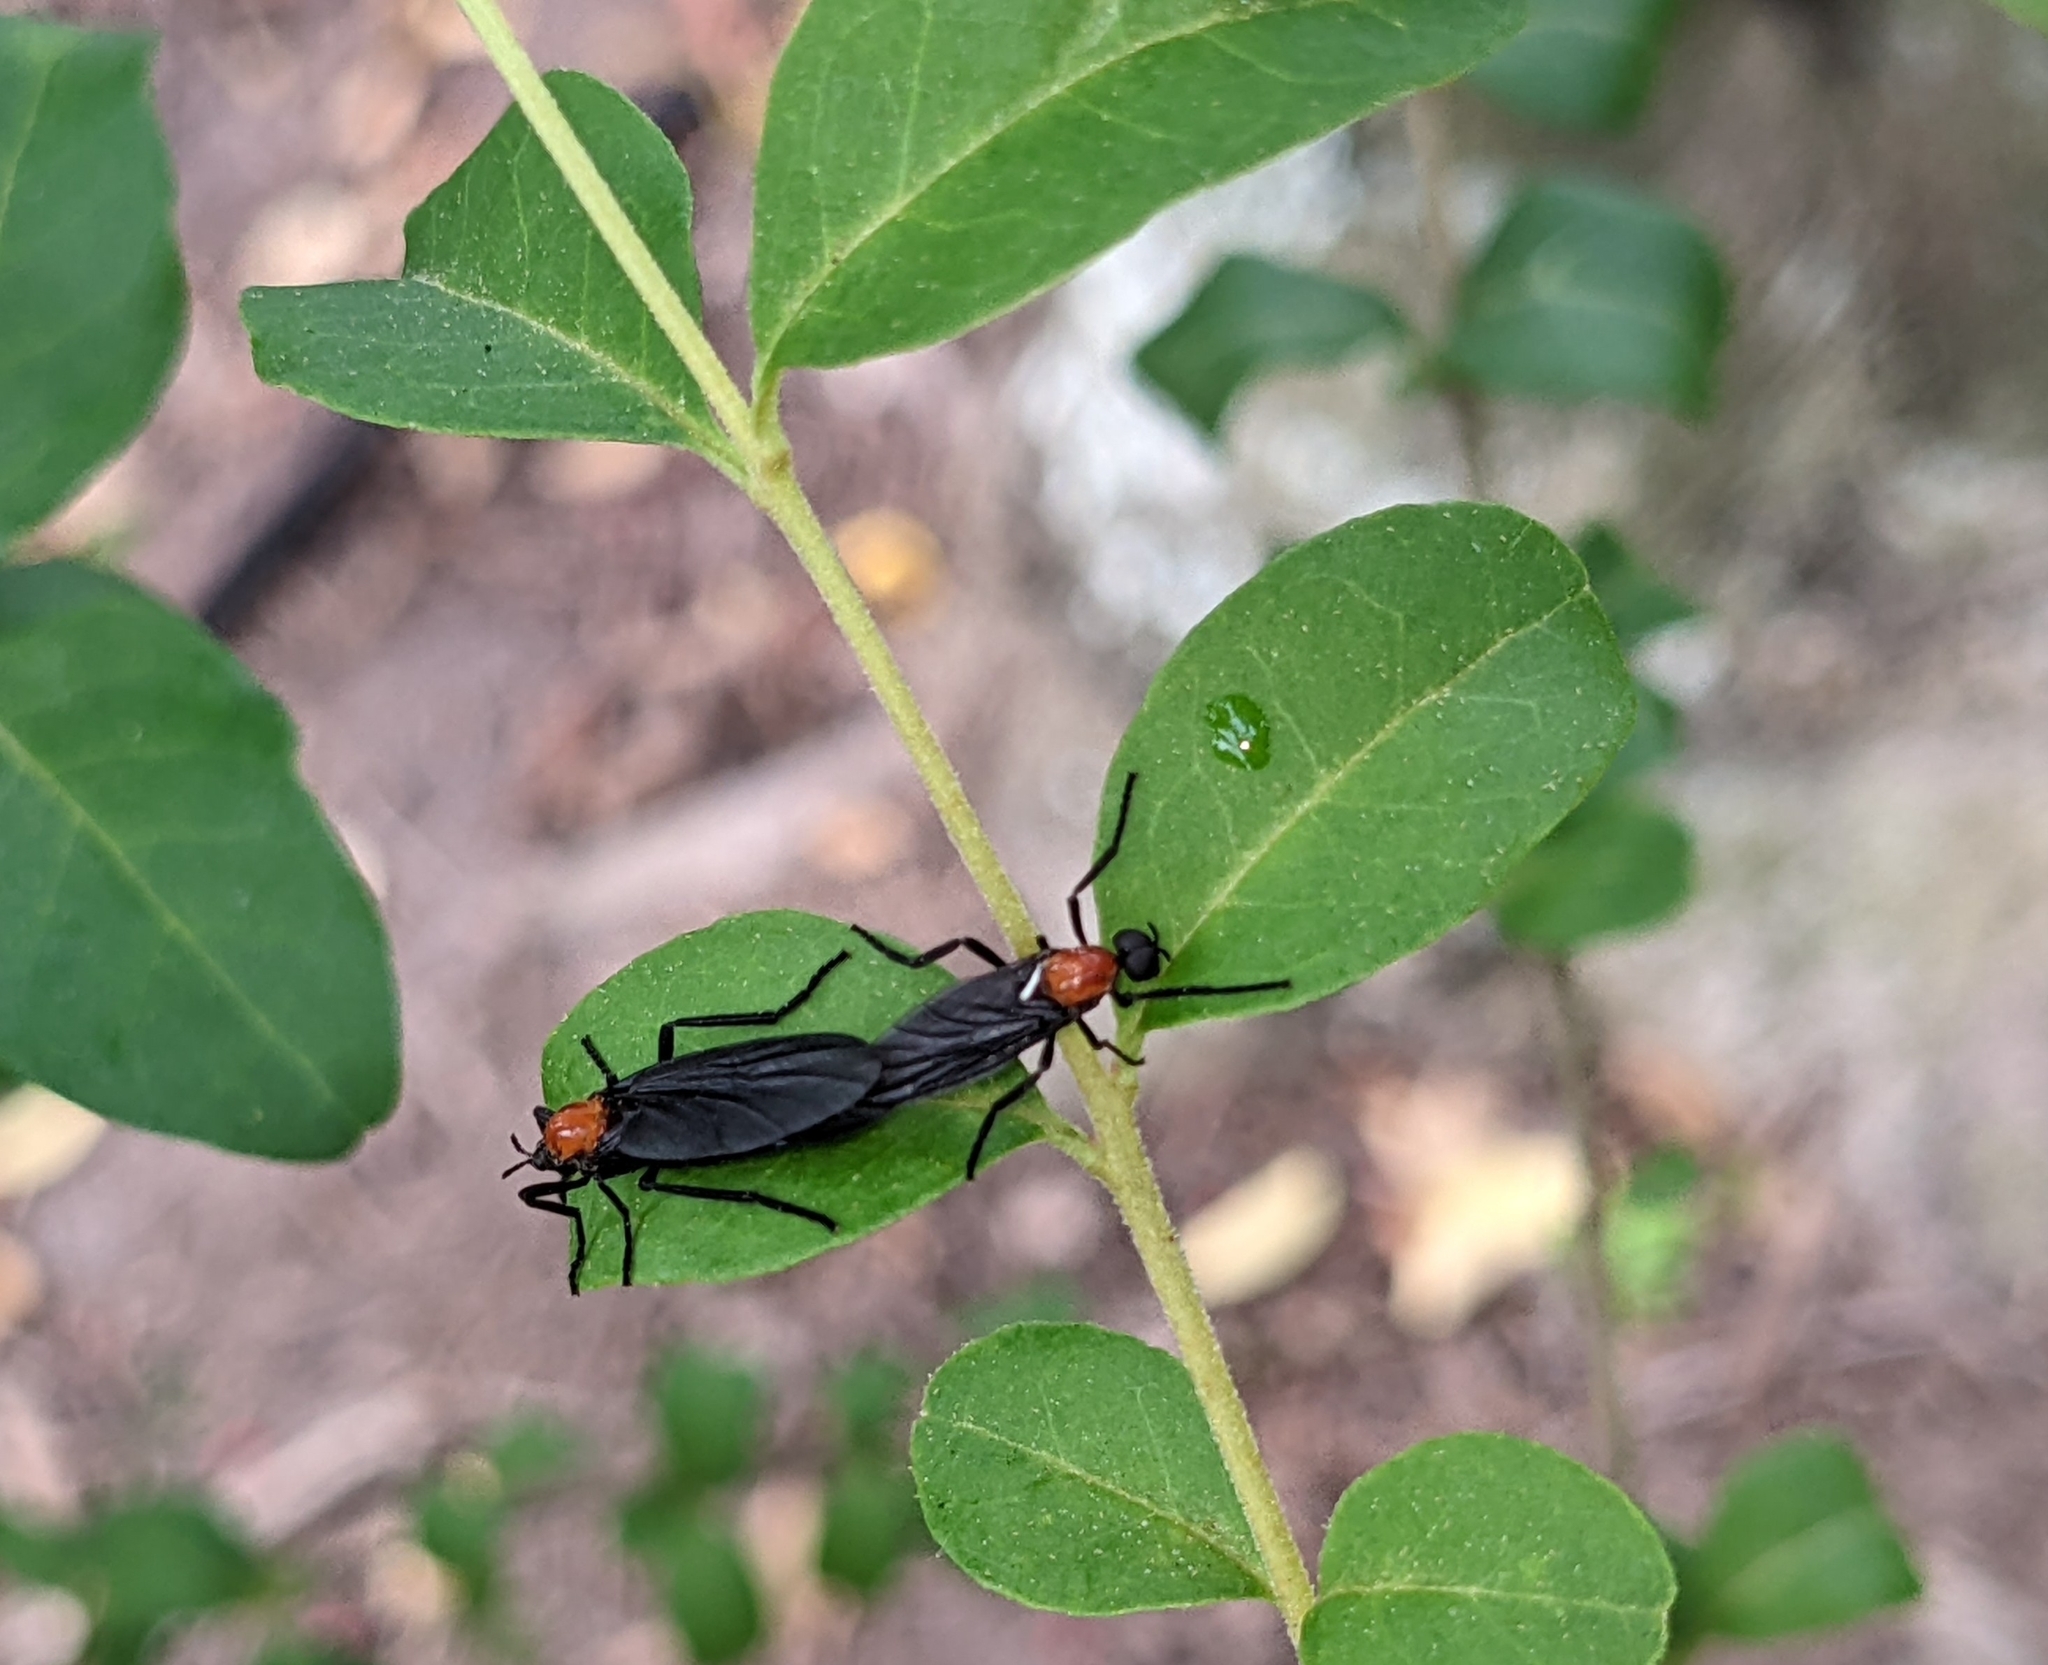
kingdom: Animalia
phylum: Arthropoda
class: Insecta
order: Diptera
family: Bibionidae
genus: Plecia
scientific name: Plecia nearctica
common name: March fly
